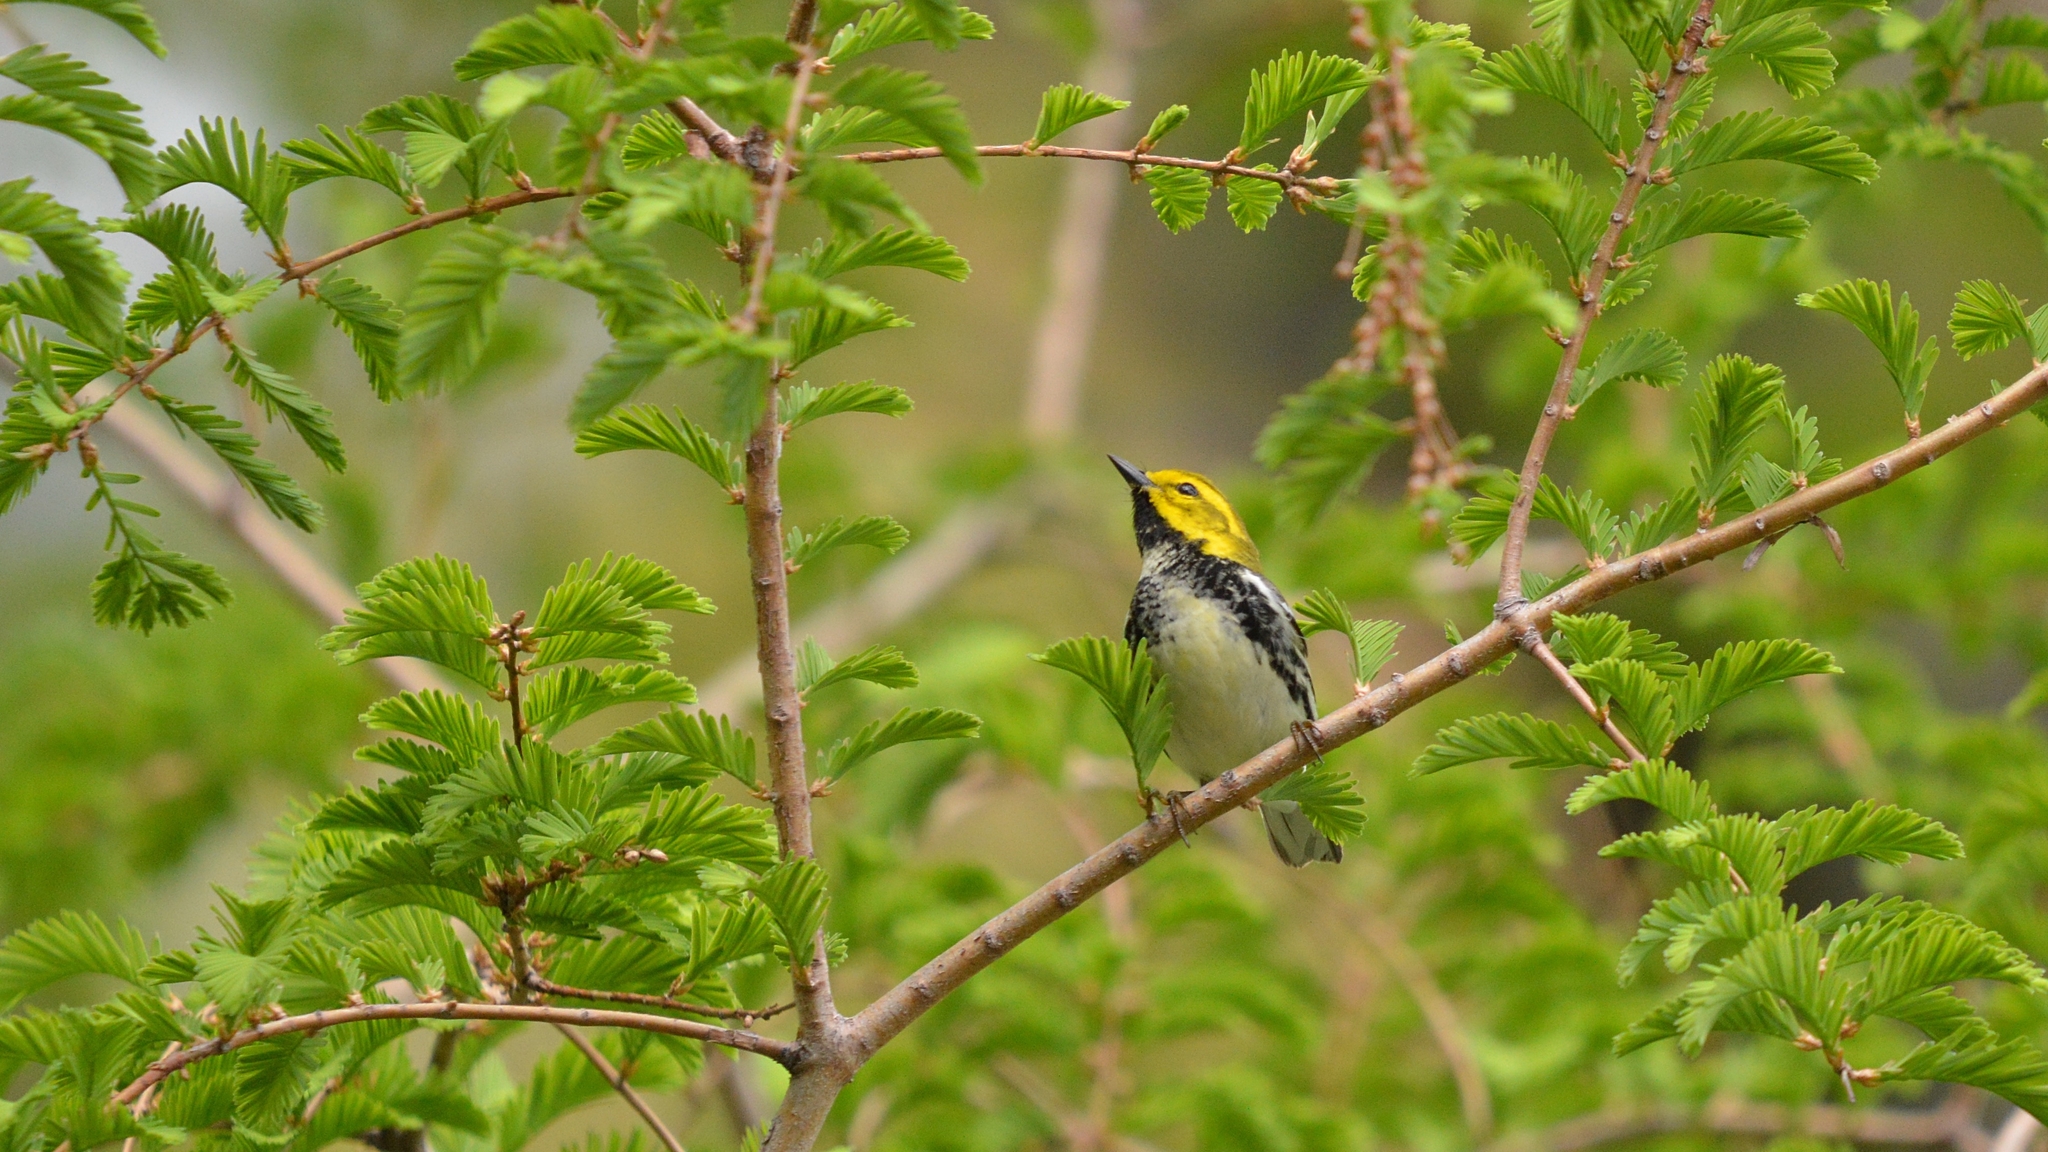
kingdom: Animalia
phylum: Chordata
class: Aves
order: Passeriformes
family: Parulidae
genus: Setophaga
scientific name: Setophaga virens
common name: Black-throated green warbler
